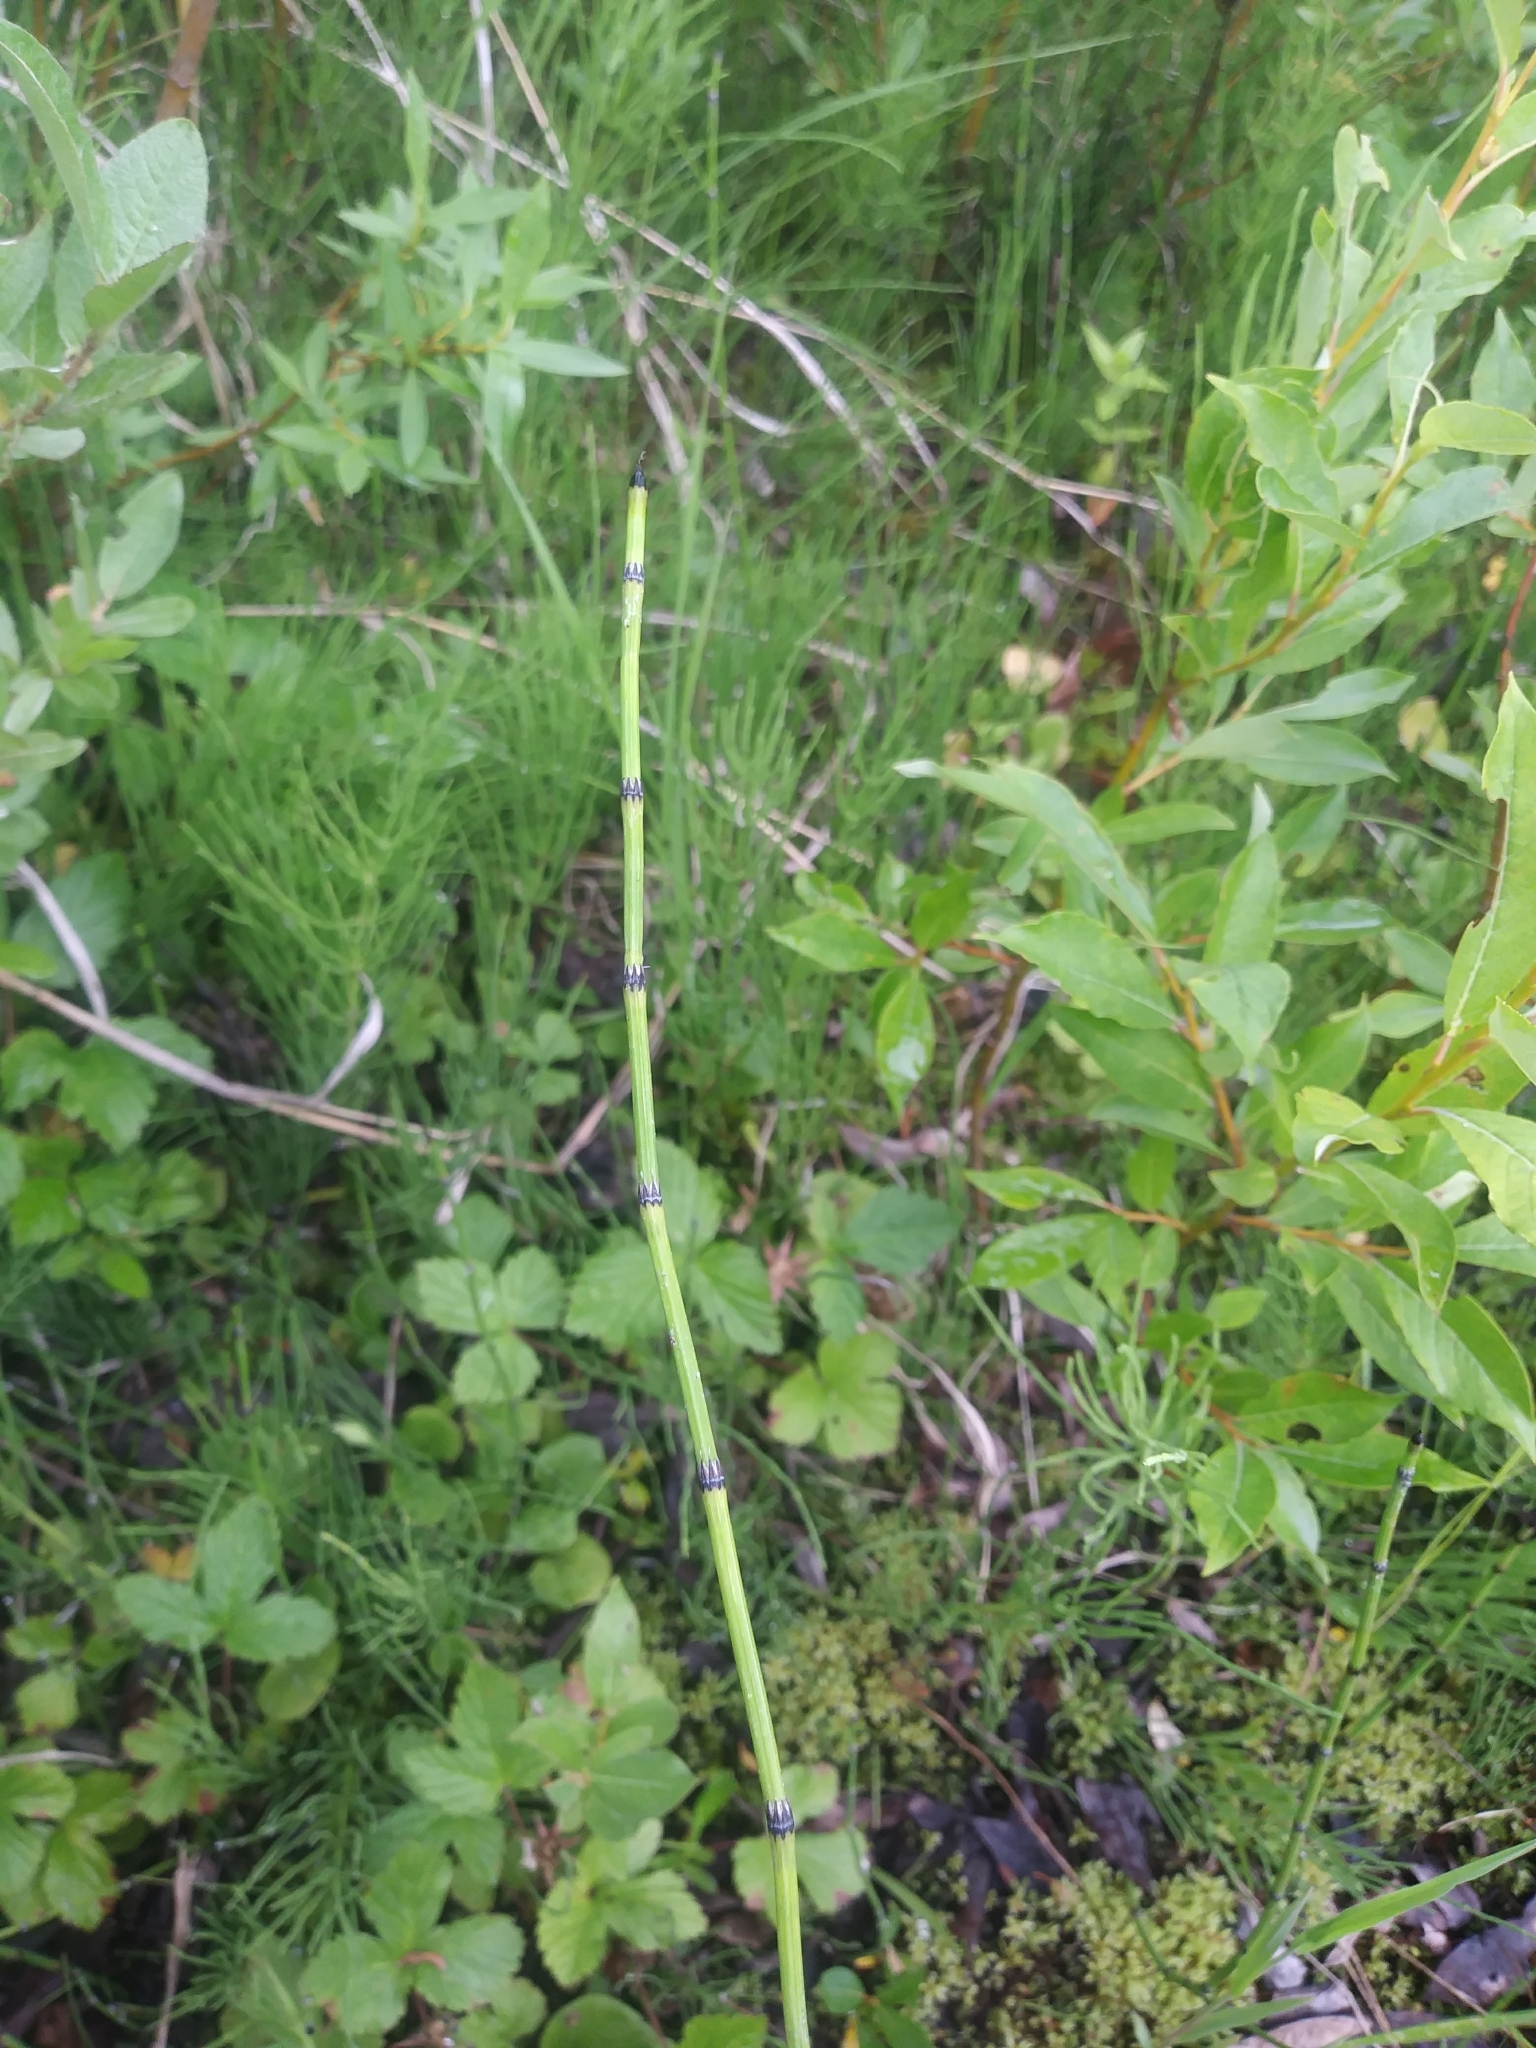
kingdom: Plantae
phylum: Tracheophyta
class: Polypodiopsida
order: Equisetales
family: Equisetaceae
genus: Equisetum
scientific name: Equisetum variegatum
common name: Variegated horsetail
